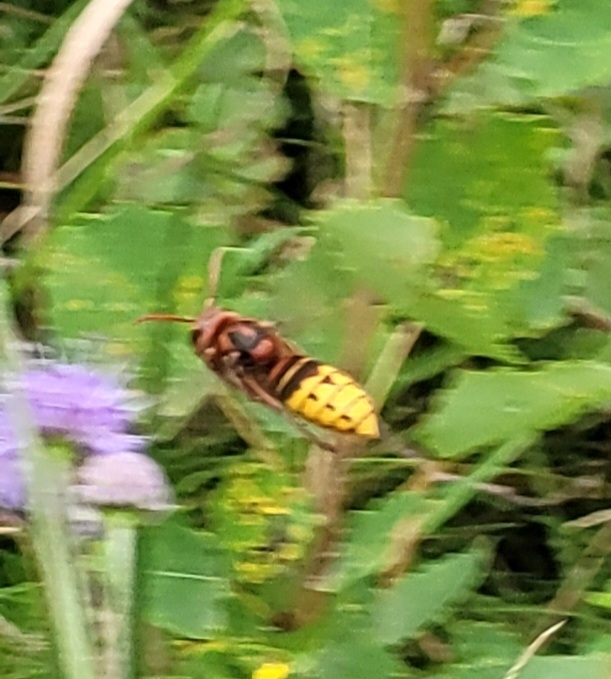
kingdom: Animalia
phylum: Arthropoda
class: Insecta
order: Hymenoptera
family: Vespidae
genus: Vespa
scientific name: Vespa crabro
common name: Hornet
